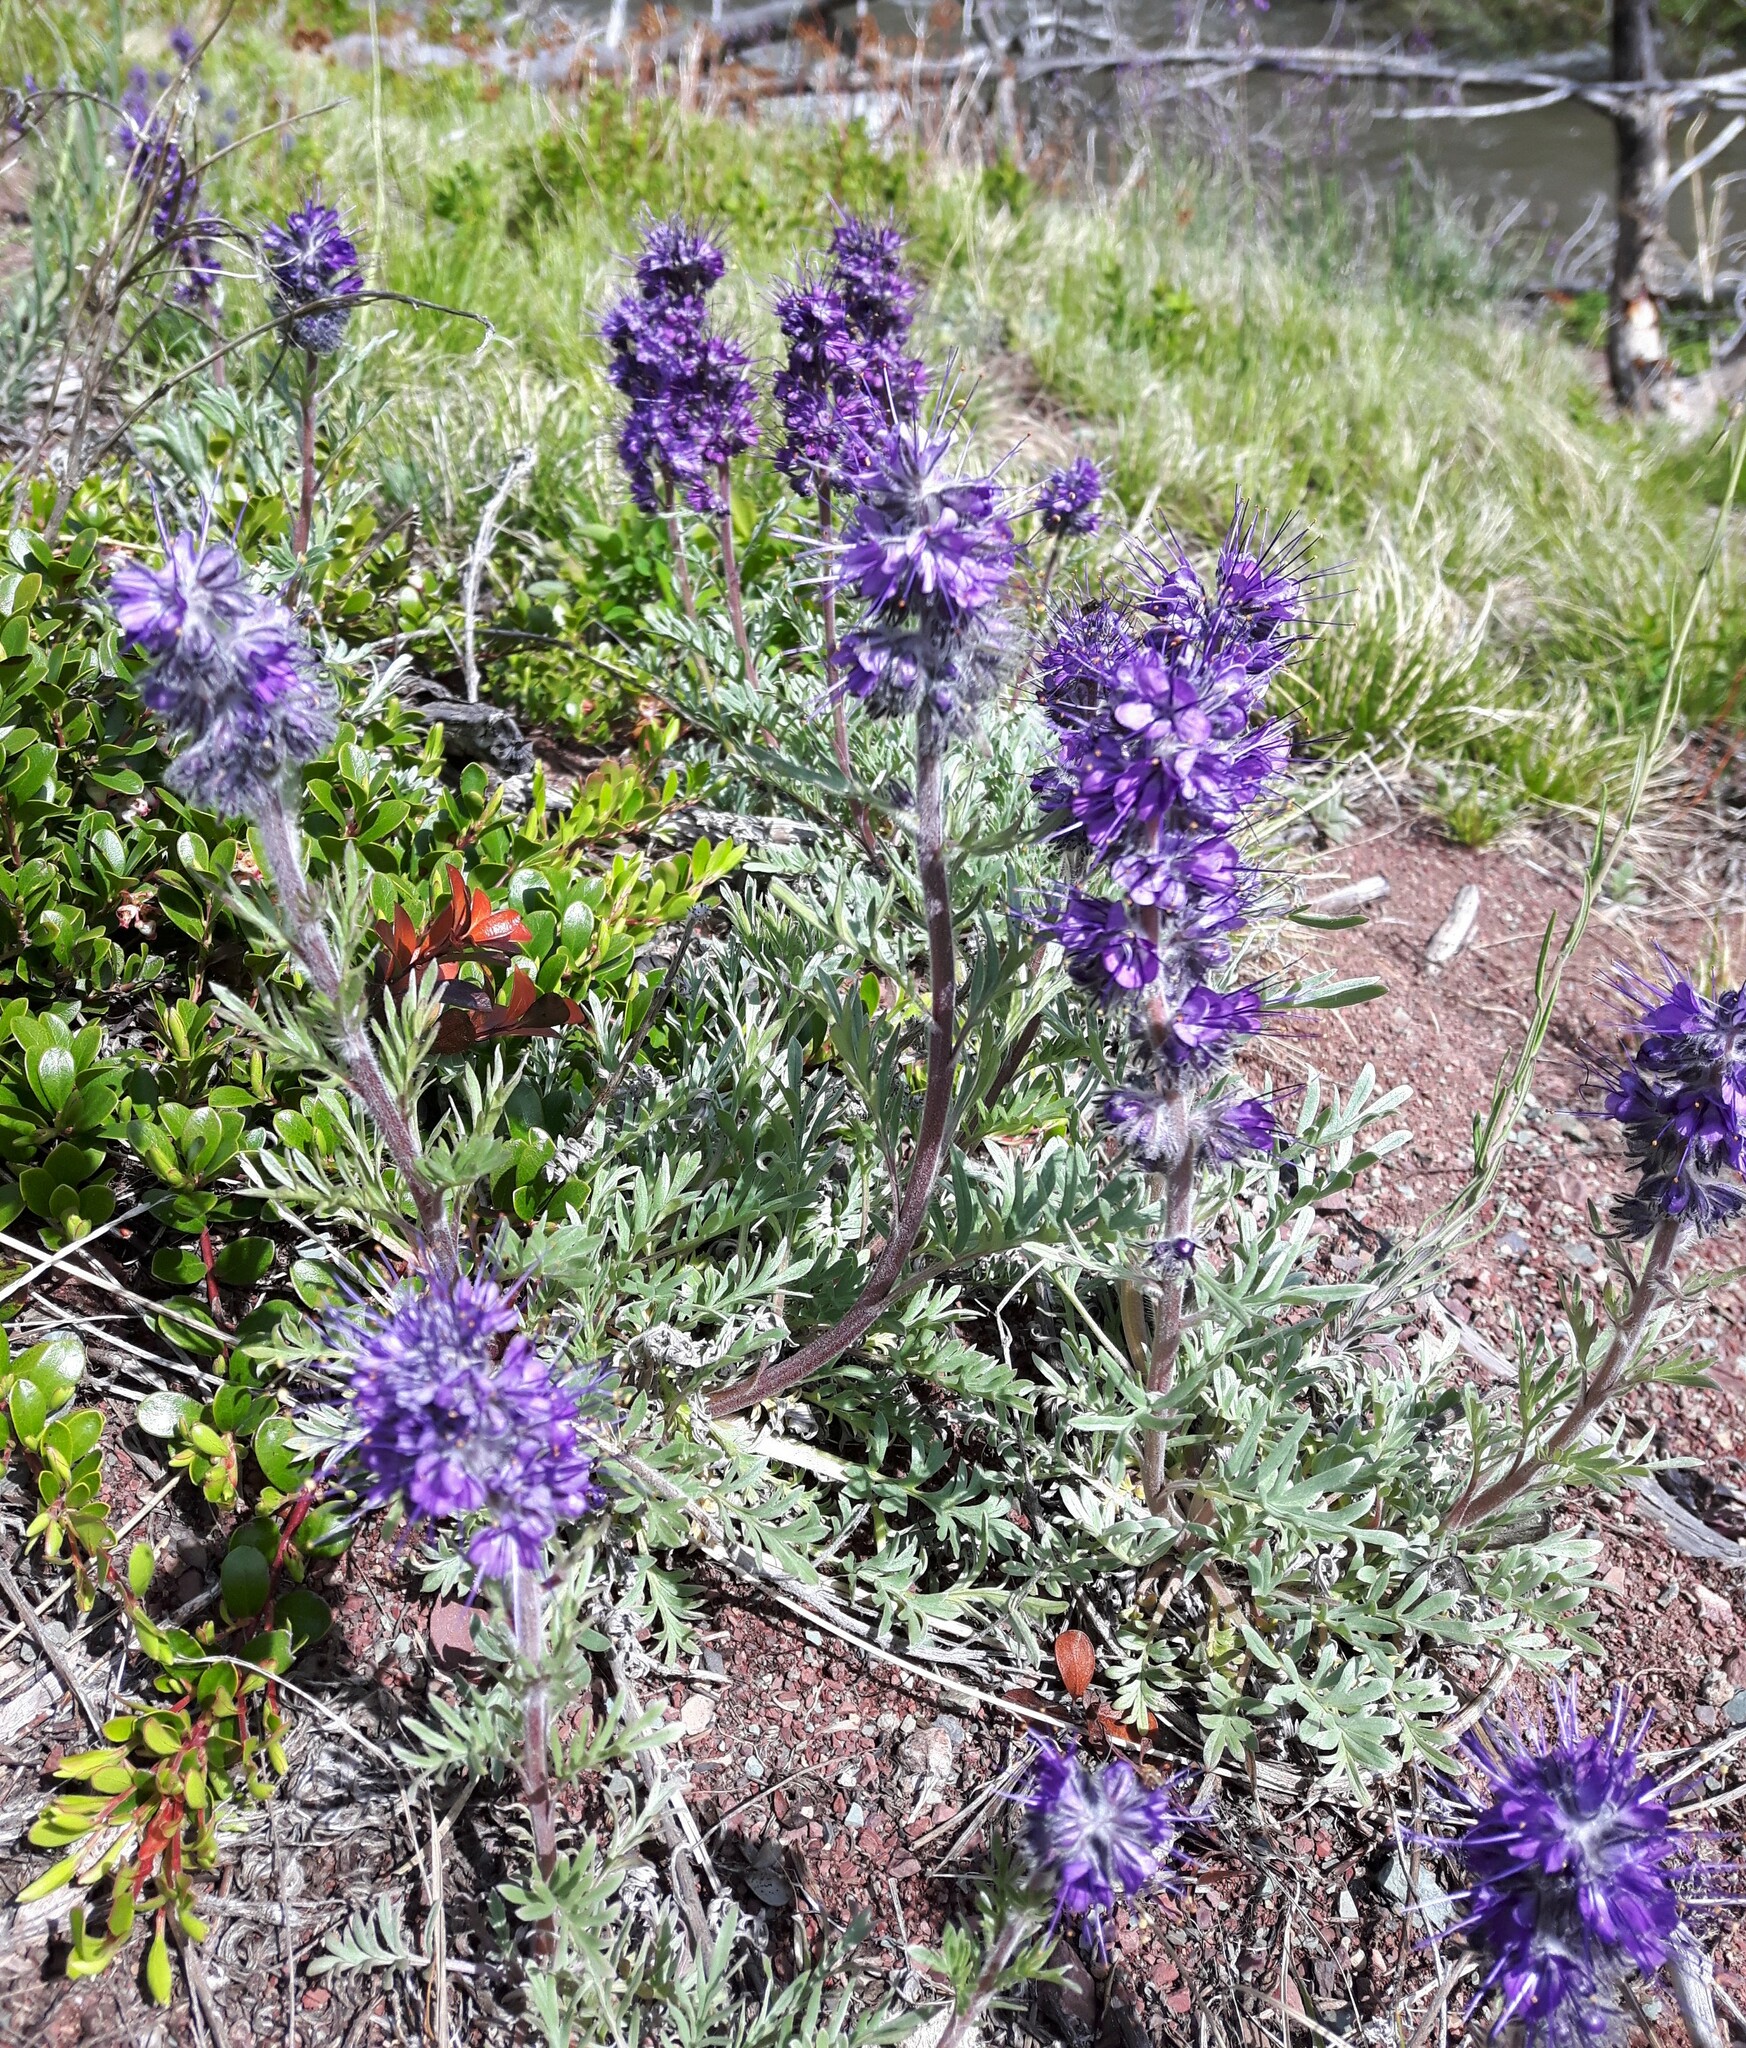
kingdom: Plantae
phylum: Tracheophyta
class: Magnoliopsida
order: Boraginales
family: Hydrophyllaceae
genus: Phacelia
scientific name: Phacelia sericea
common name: Silky phacelia
